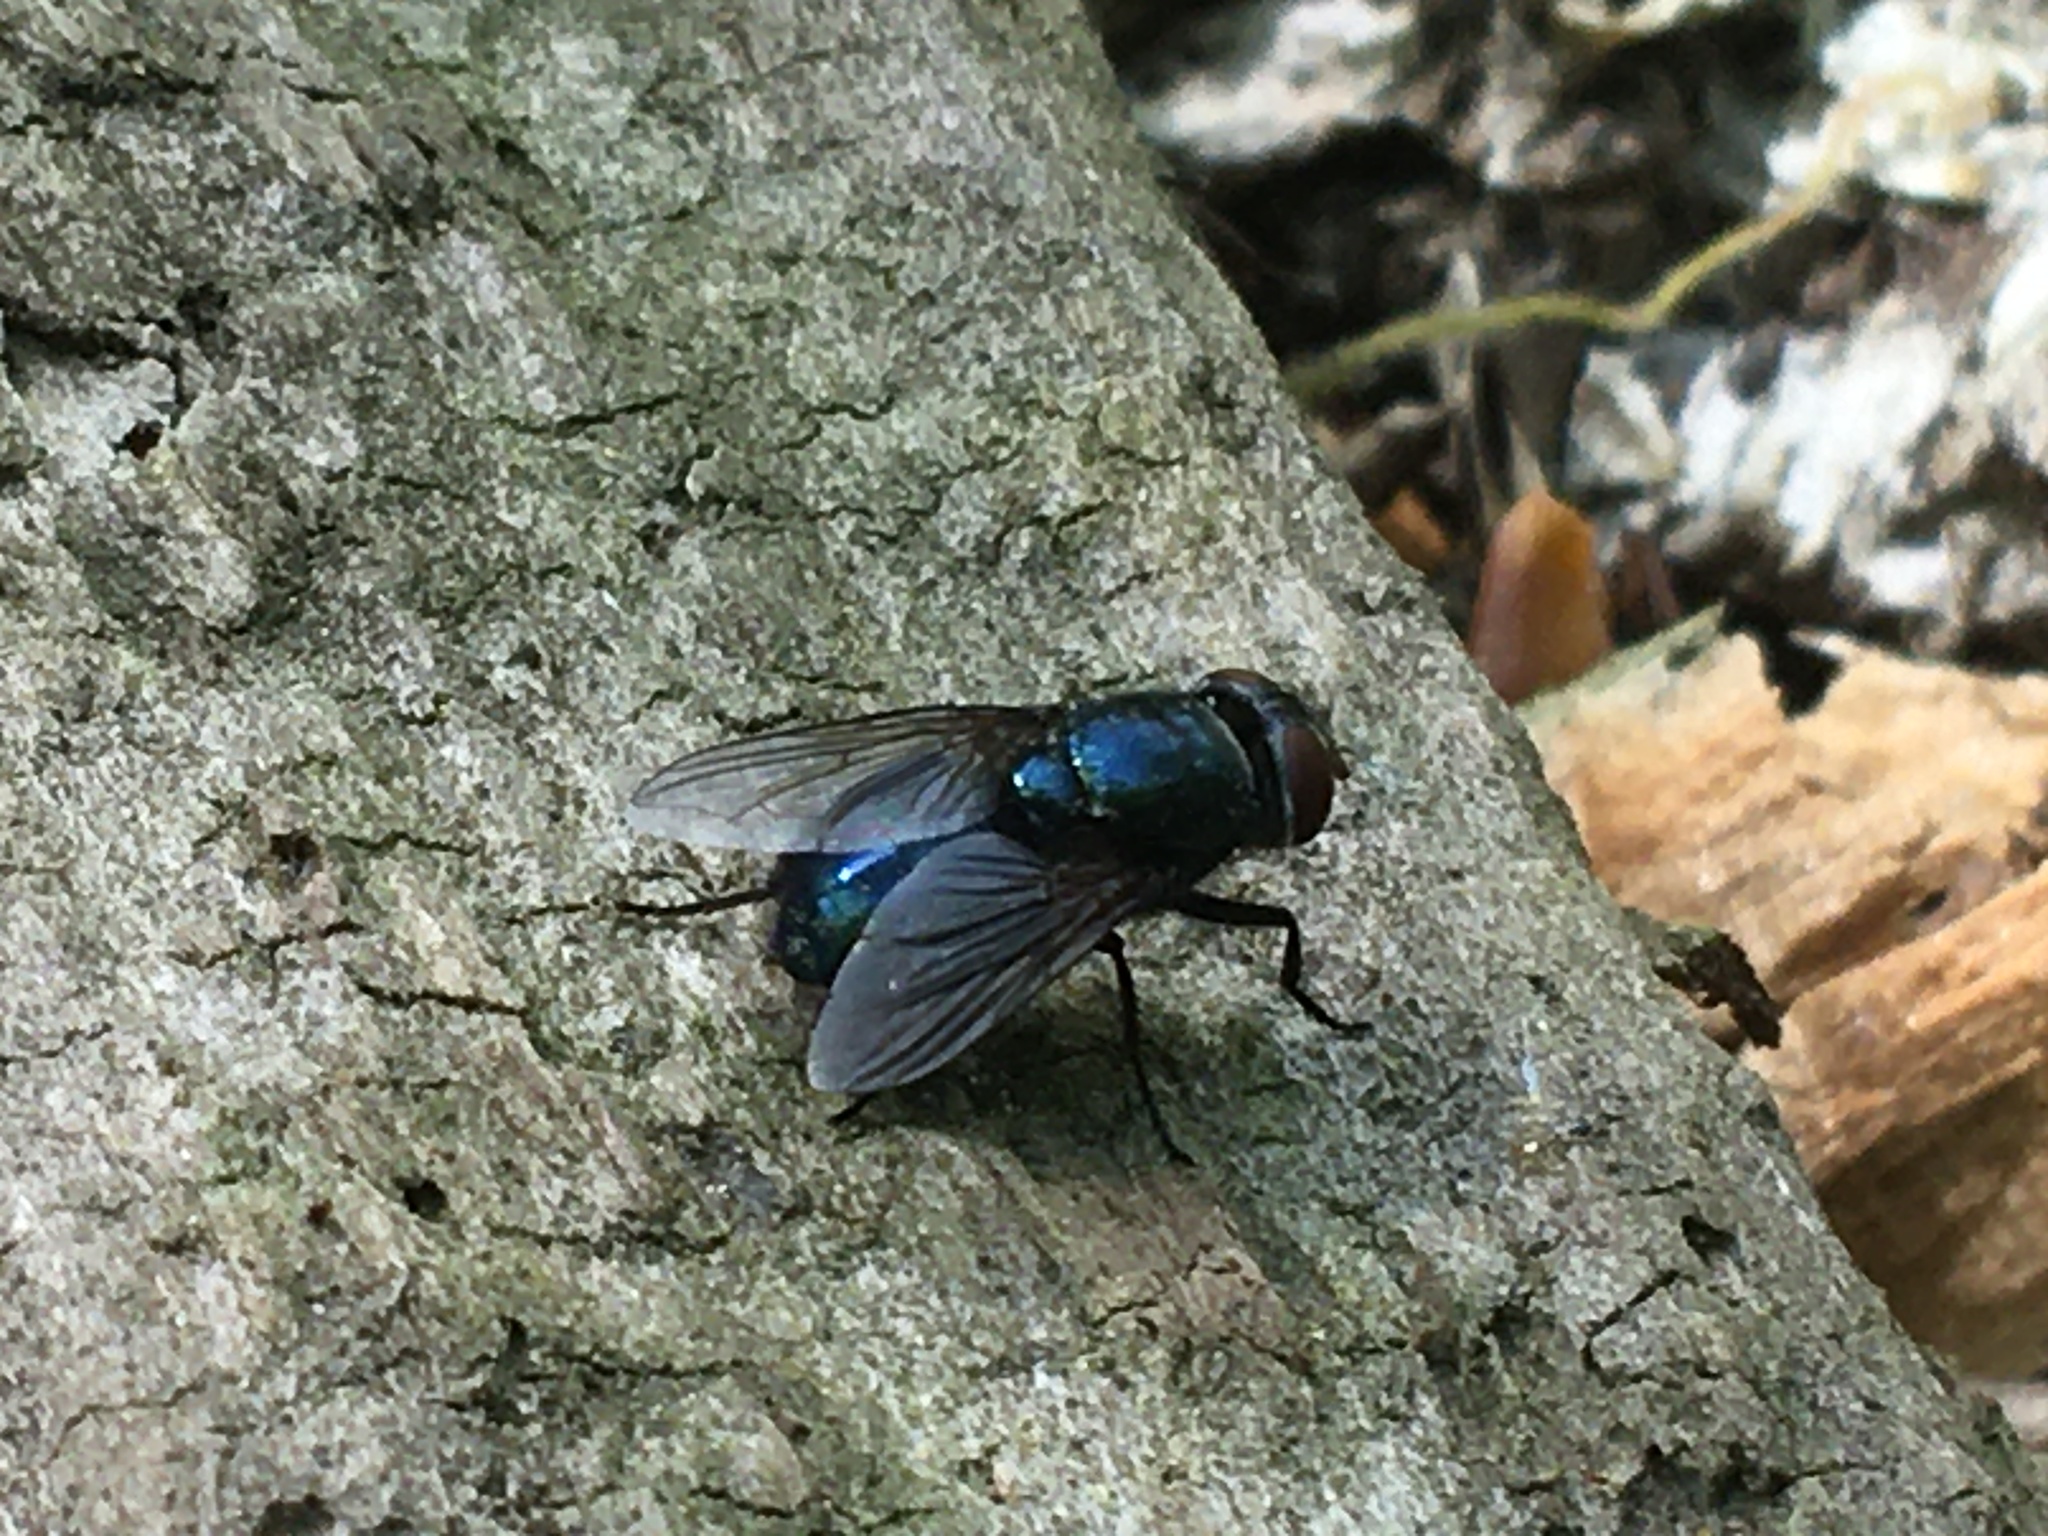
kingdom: Animalia
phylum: Arthropoda
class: Insecta
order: Diptera
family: Calliphoridae
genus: Phormia
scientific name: Phormia regina
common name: Black blow fly
